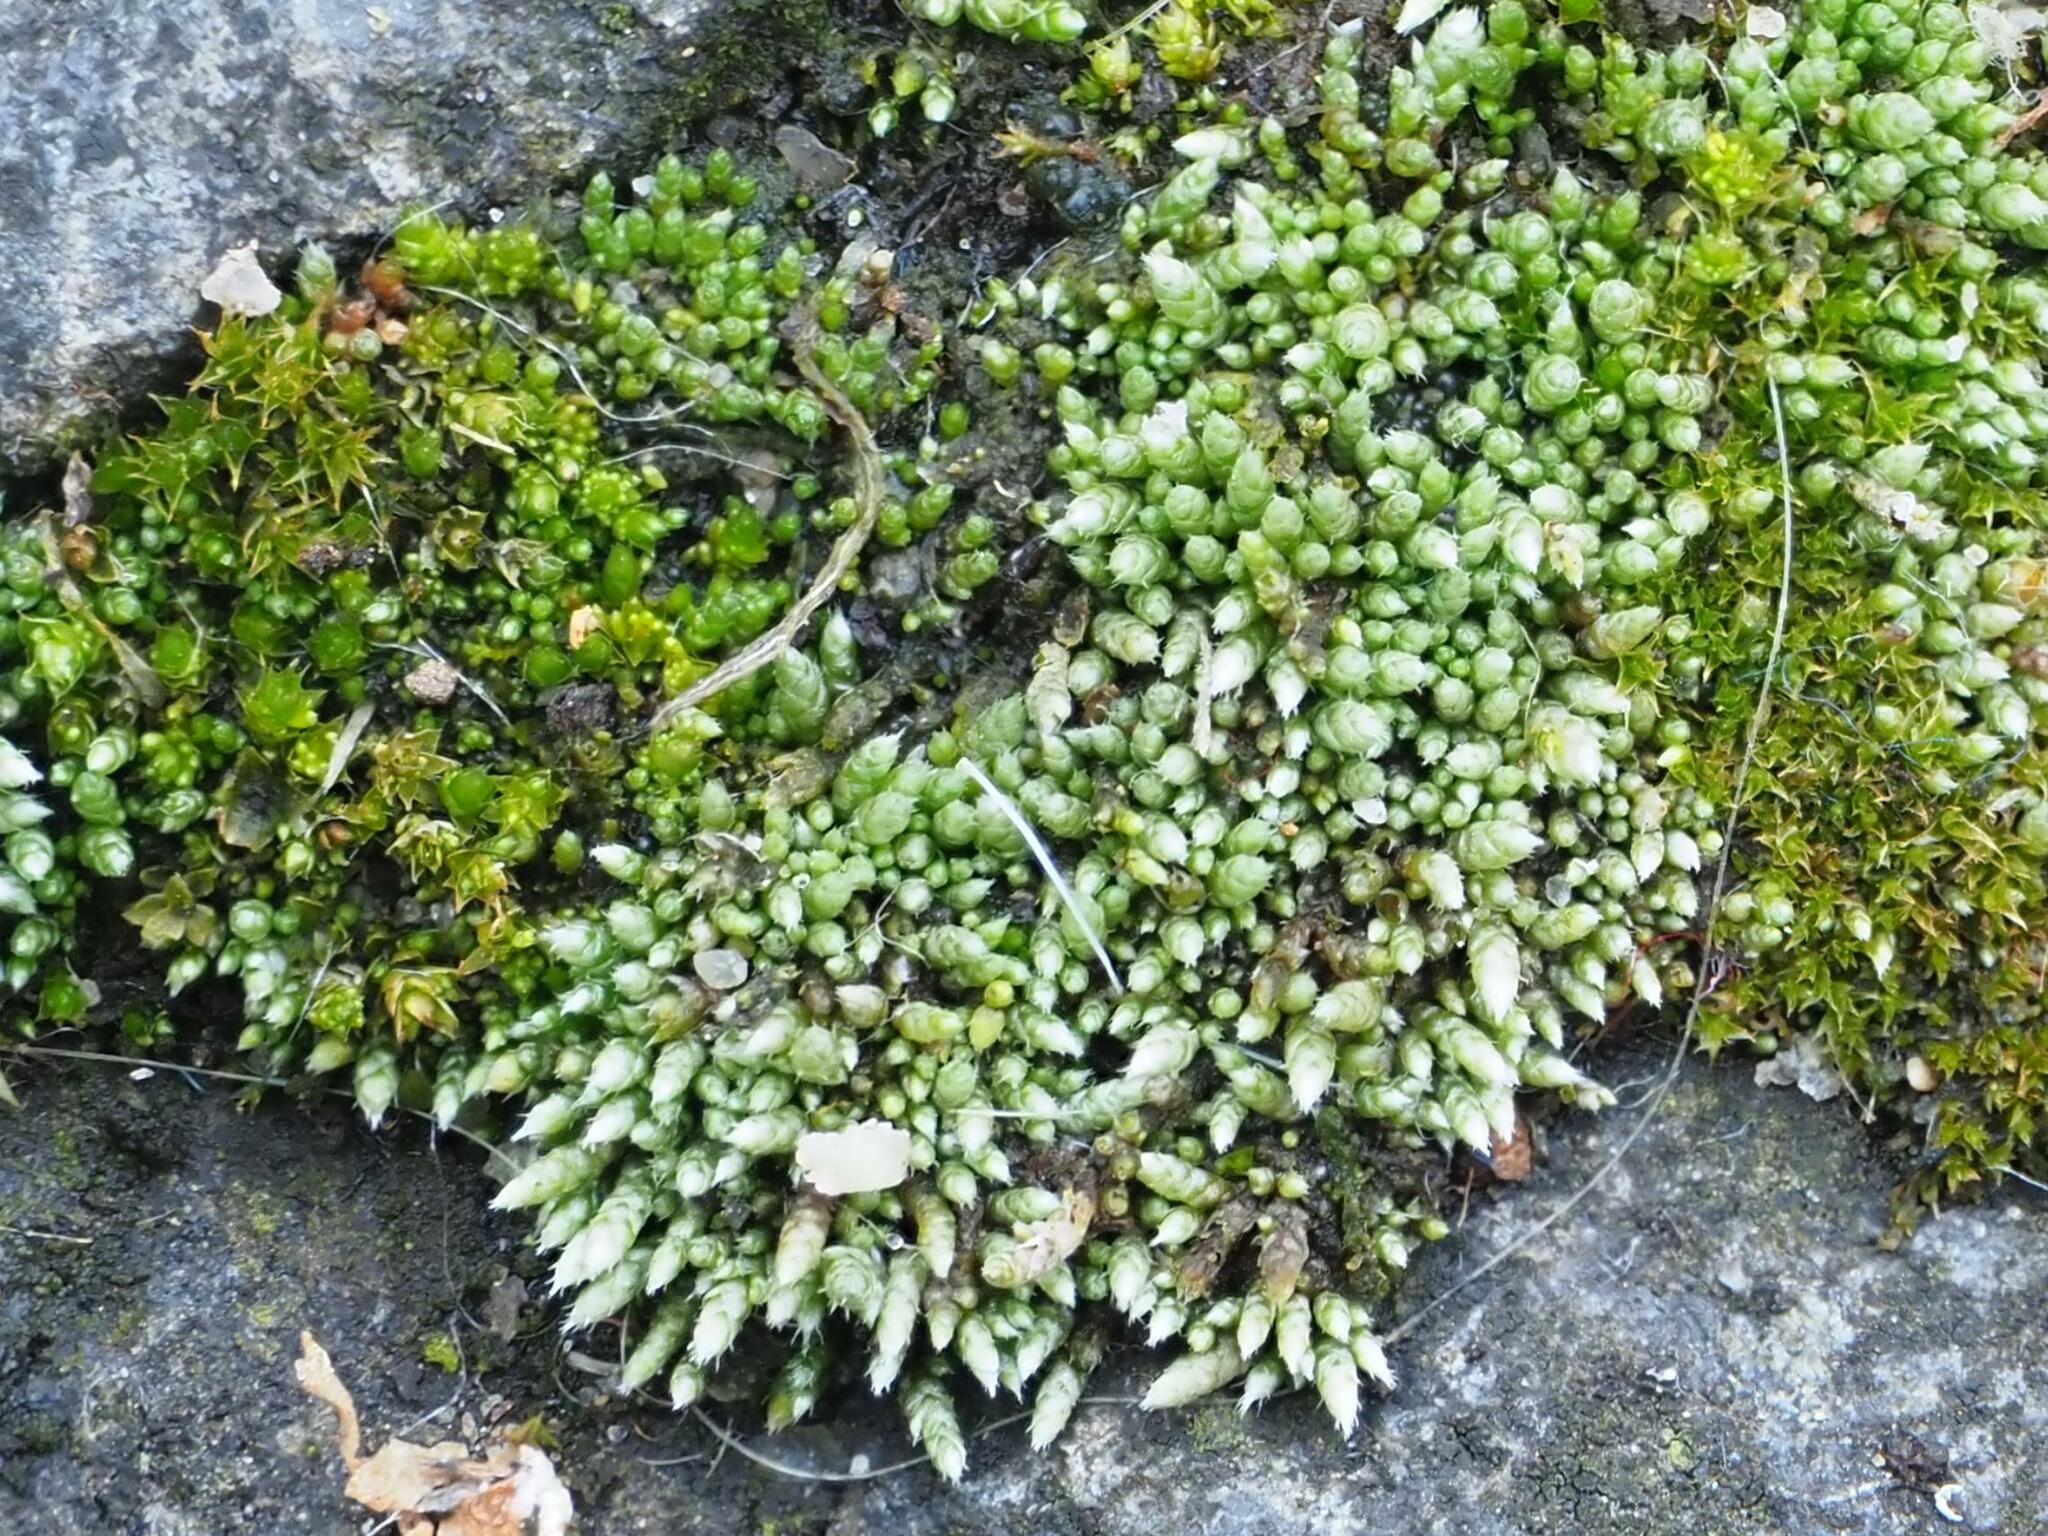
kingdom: Plantae
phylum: Bryophyta
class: Bryopsida
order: Bryales
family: Bryaceae
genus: Bryum
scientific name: Bryum argenteum
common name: Silver-moss
